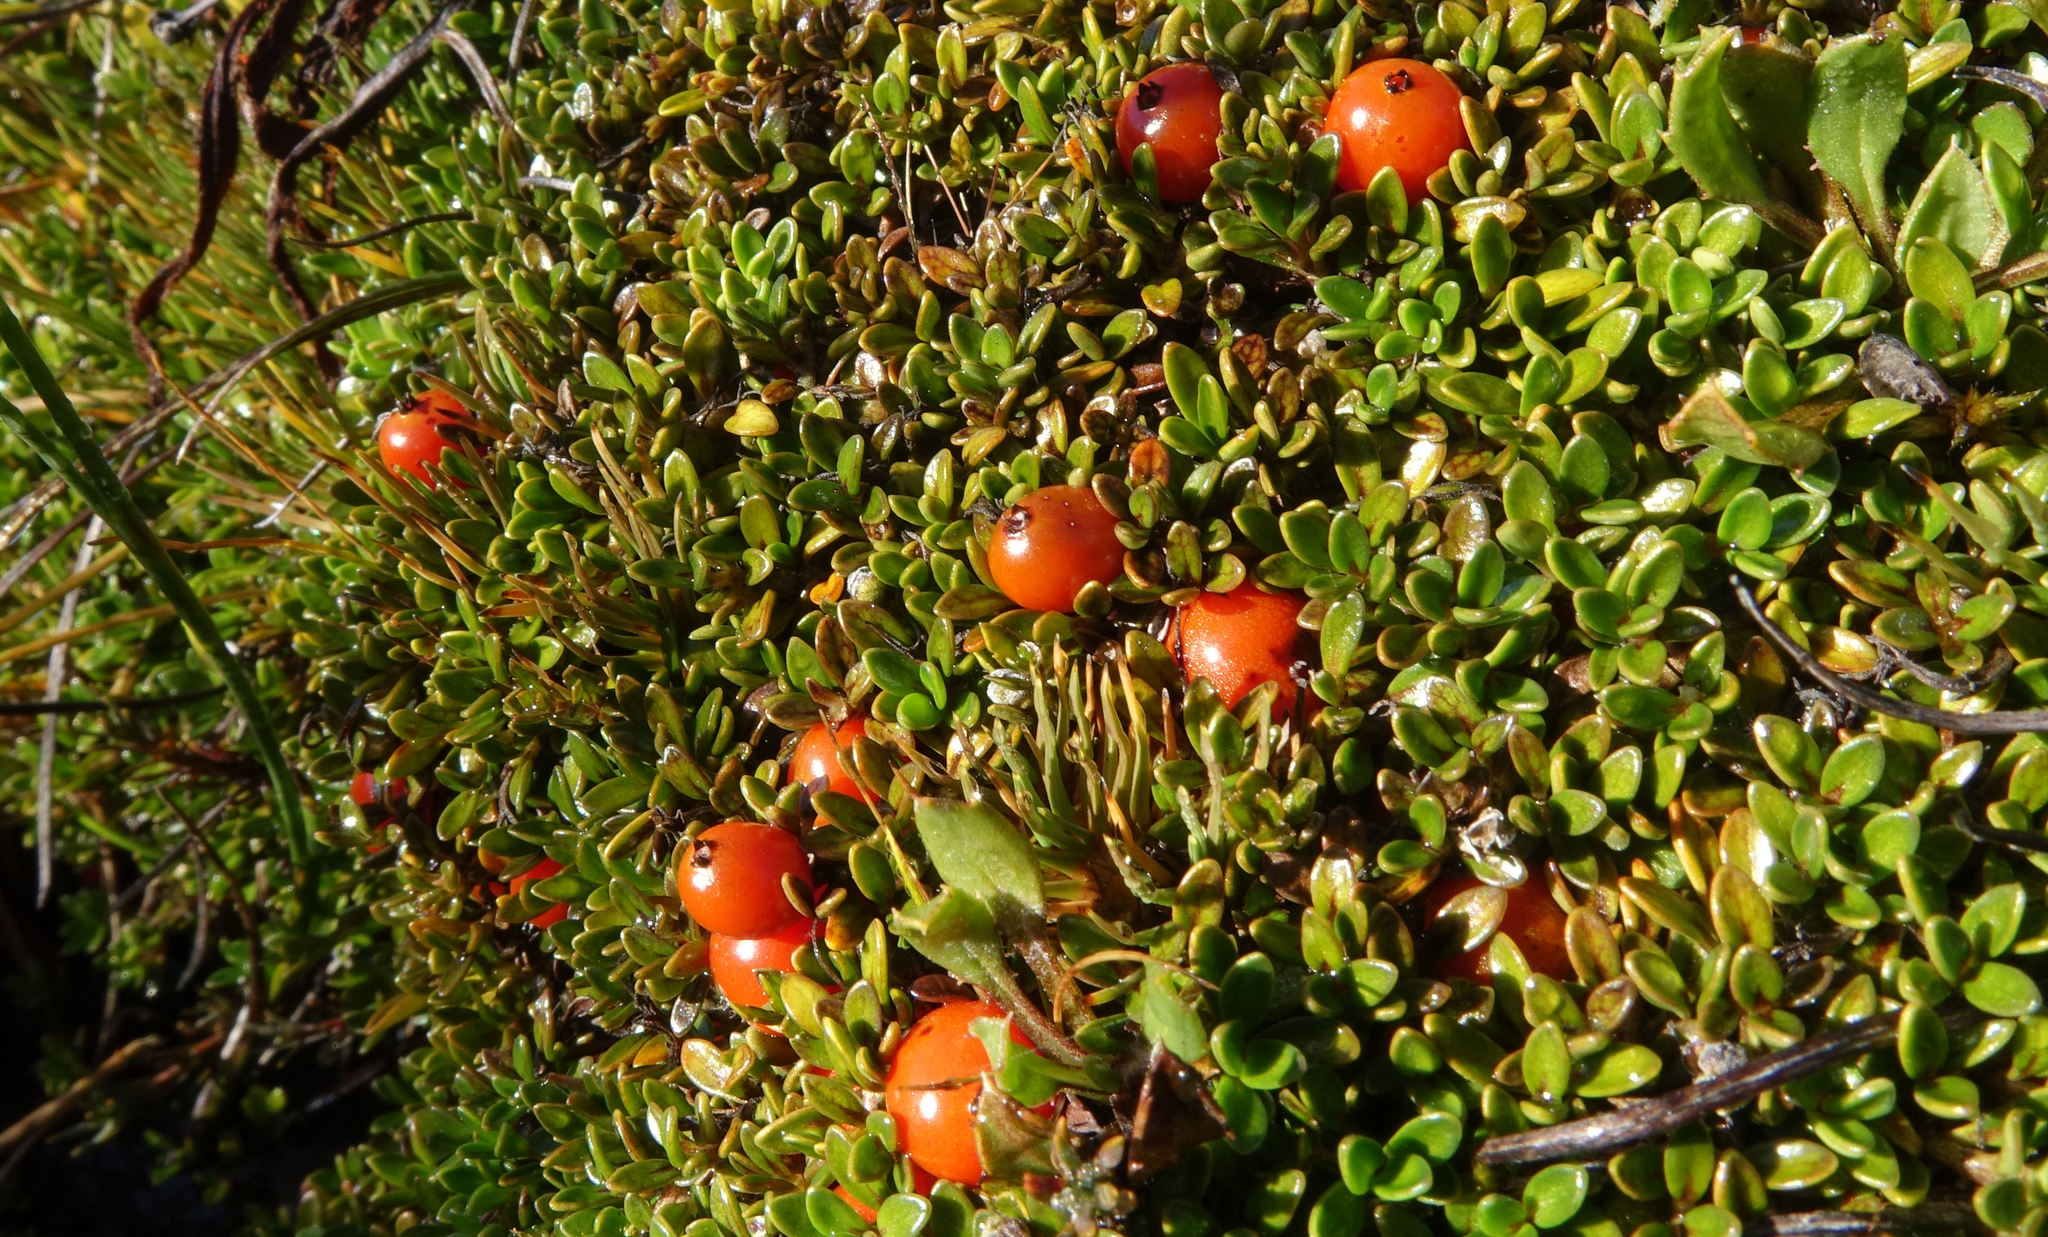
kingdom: Plantae
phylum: Tracheophyta
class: Magnoliopsida
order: Gentianales
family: Rubiaceae
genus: Coprosma
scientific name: Coprosma perpusilla
